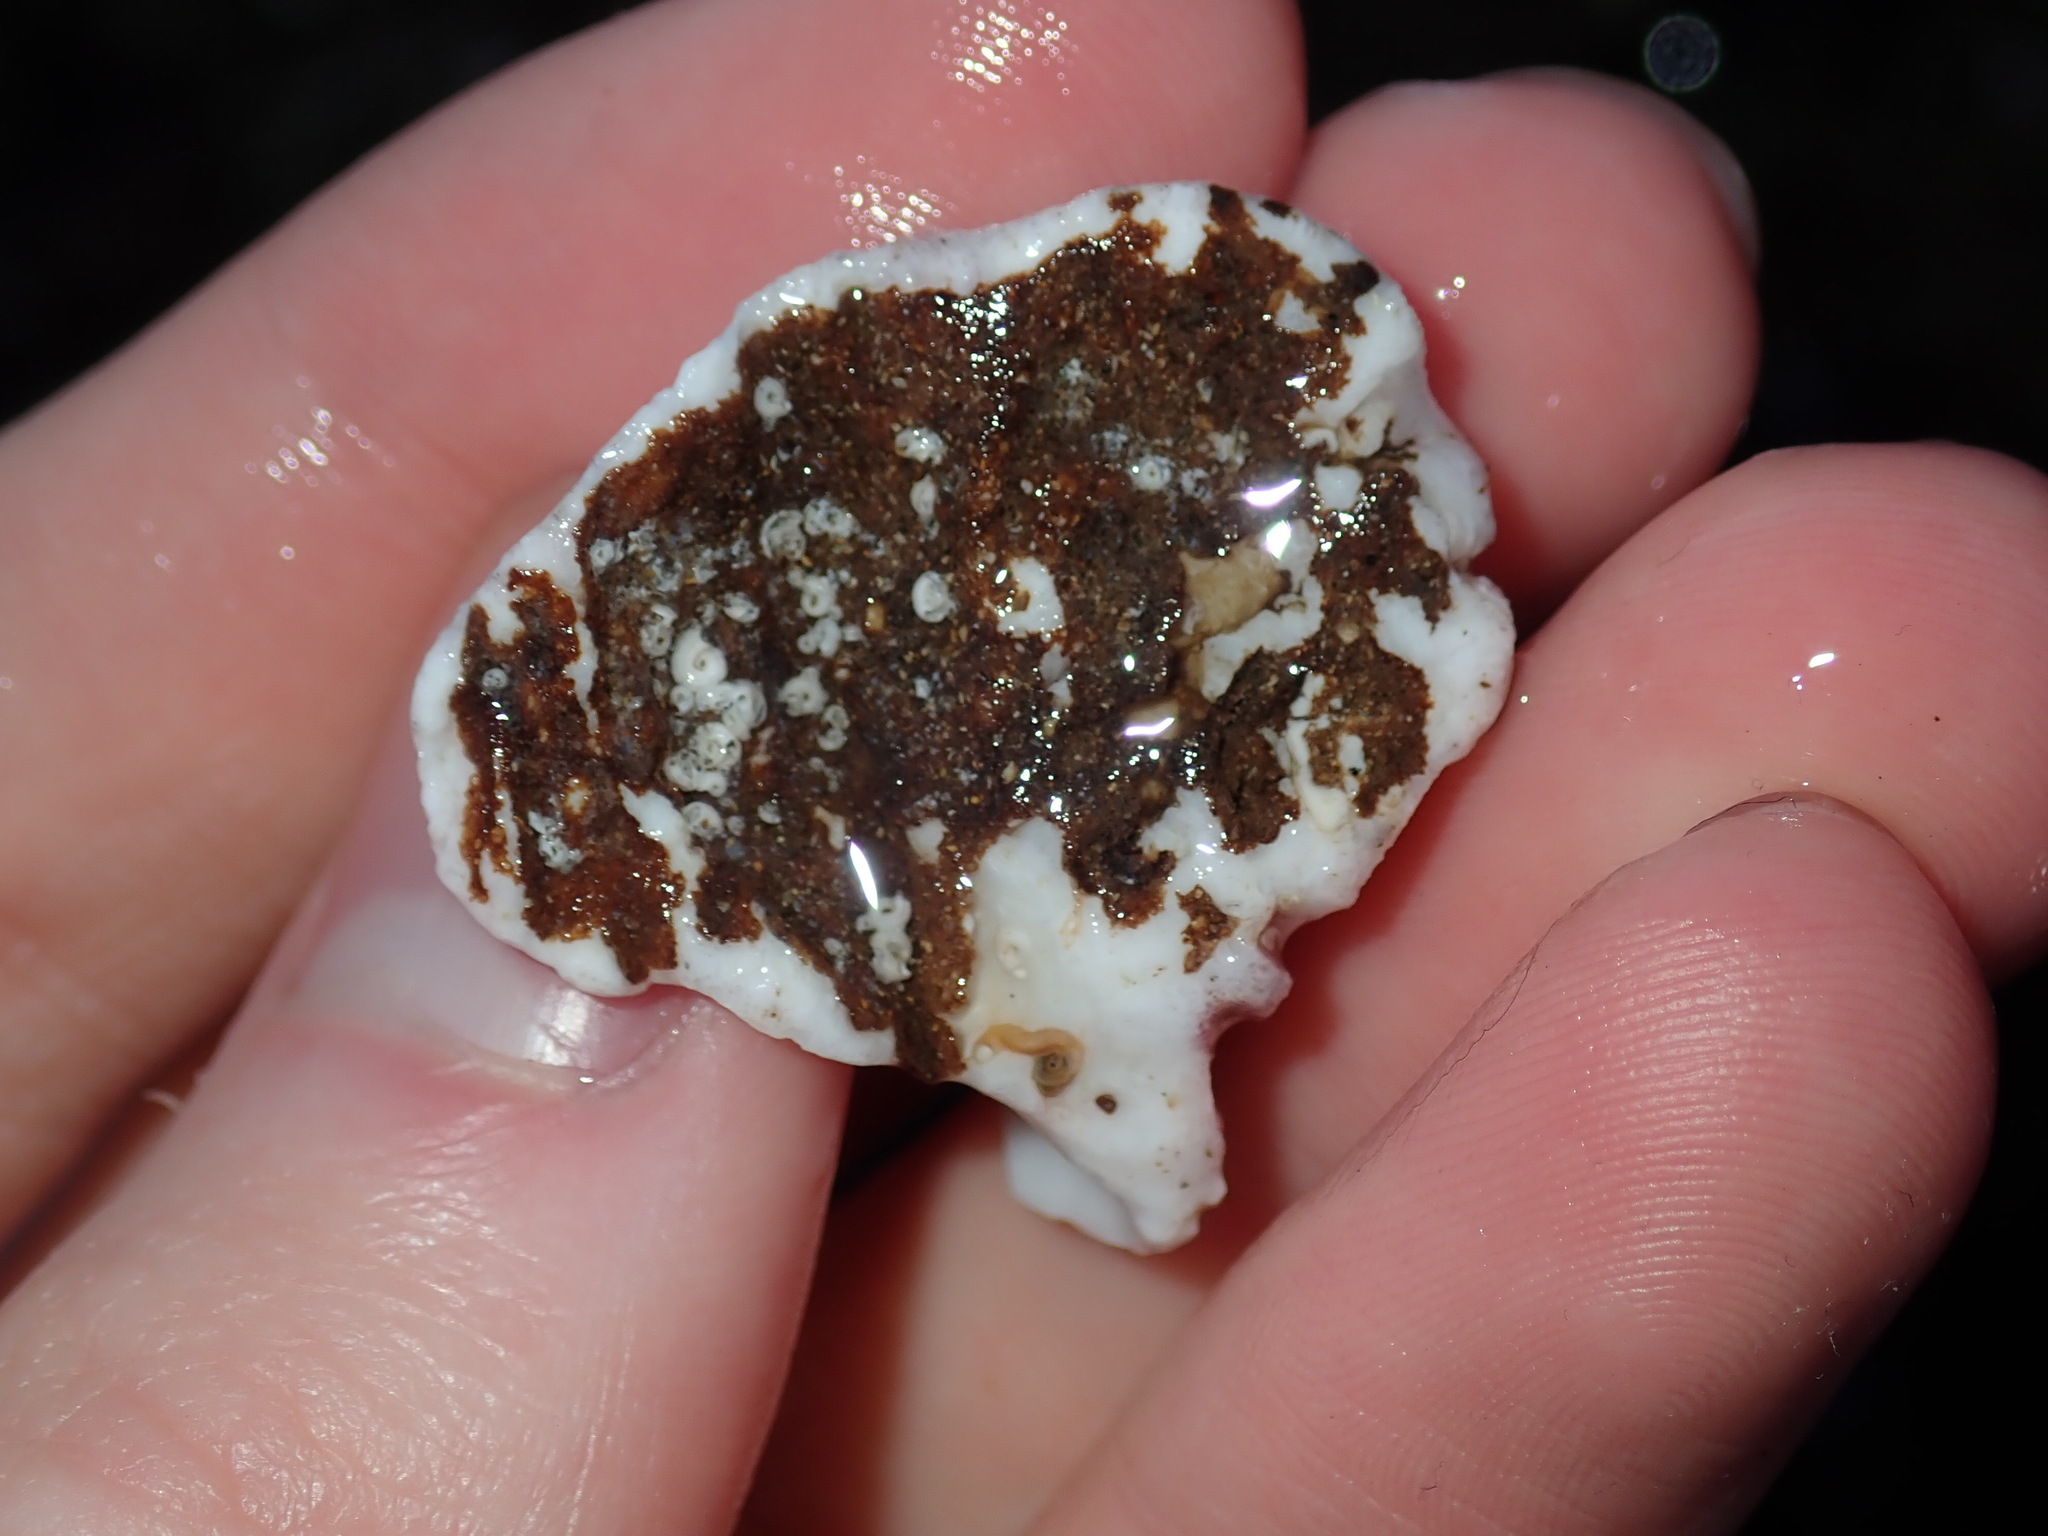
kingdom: Animalia
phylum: Mollusca
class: Bivalvia
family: Cleidothaeridae
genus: Cleidothaerus
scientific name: Cleidothaerus albidus
